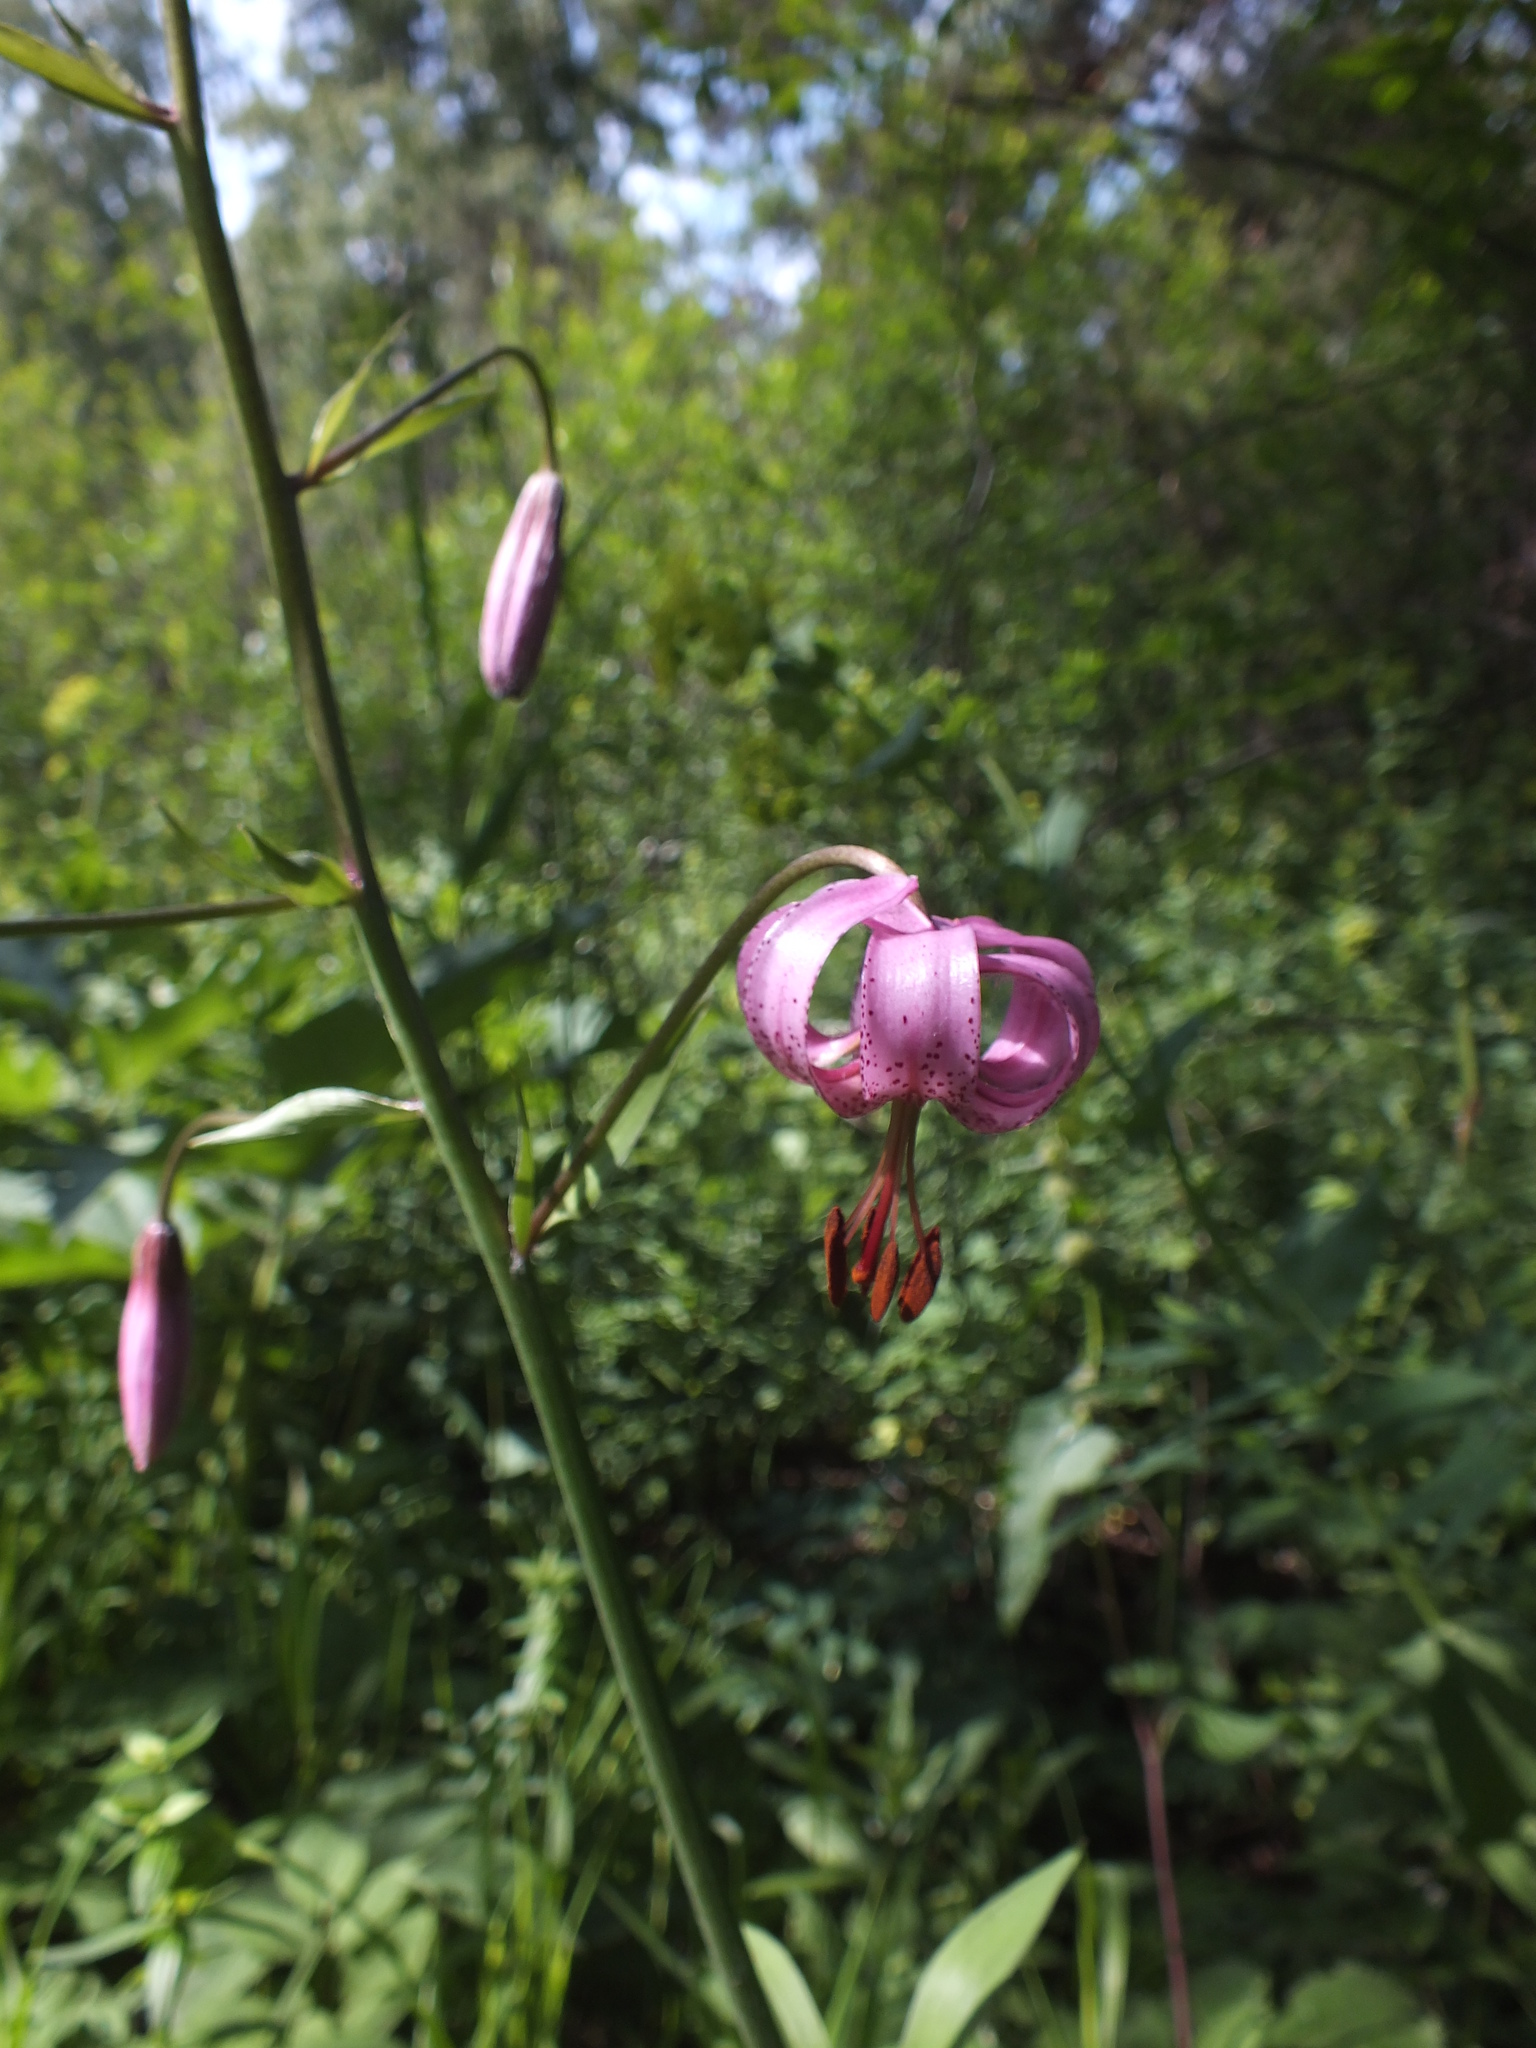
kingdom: Plantae
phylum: Tracheophyta
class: Liliopsida
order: Liliales
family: Liliaceae
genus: Lilium
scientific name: Lilium martagon
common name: Martagon lily
